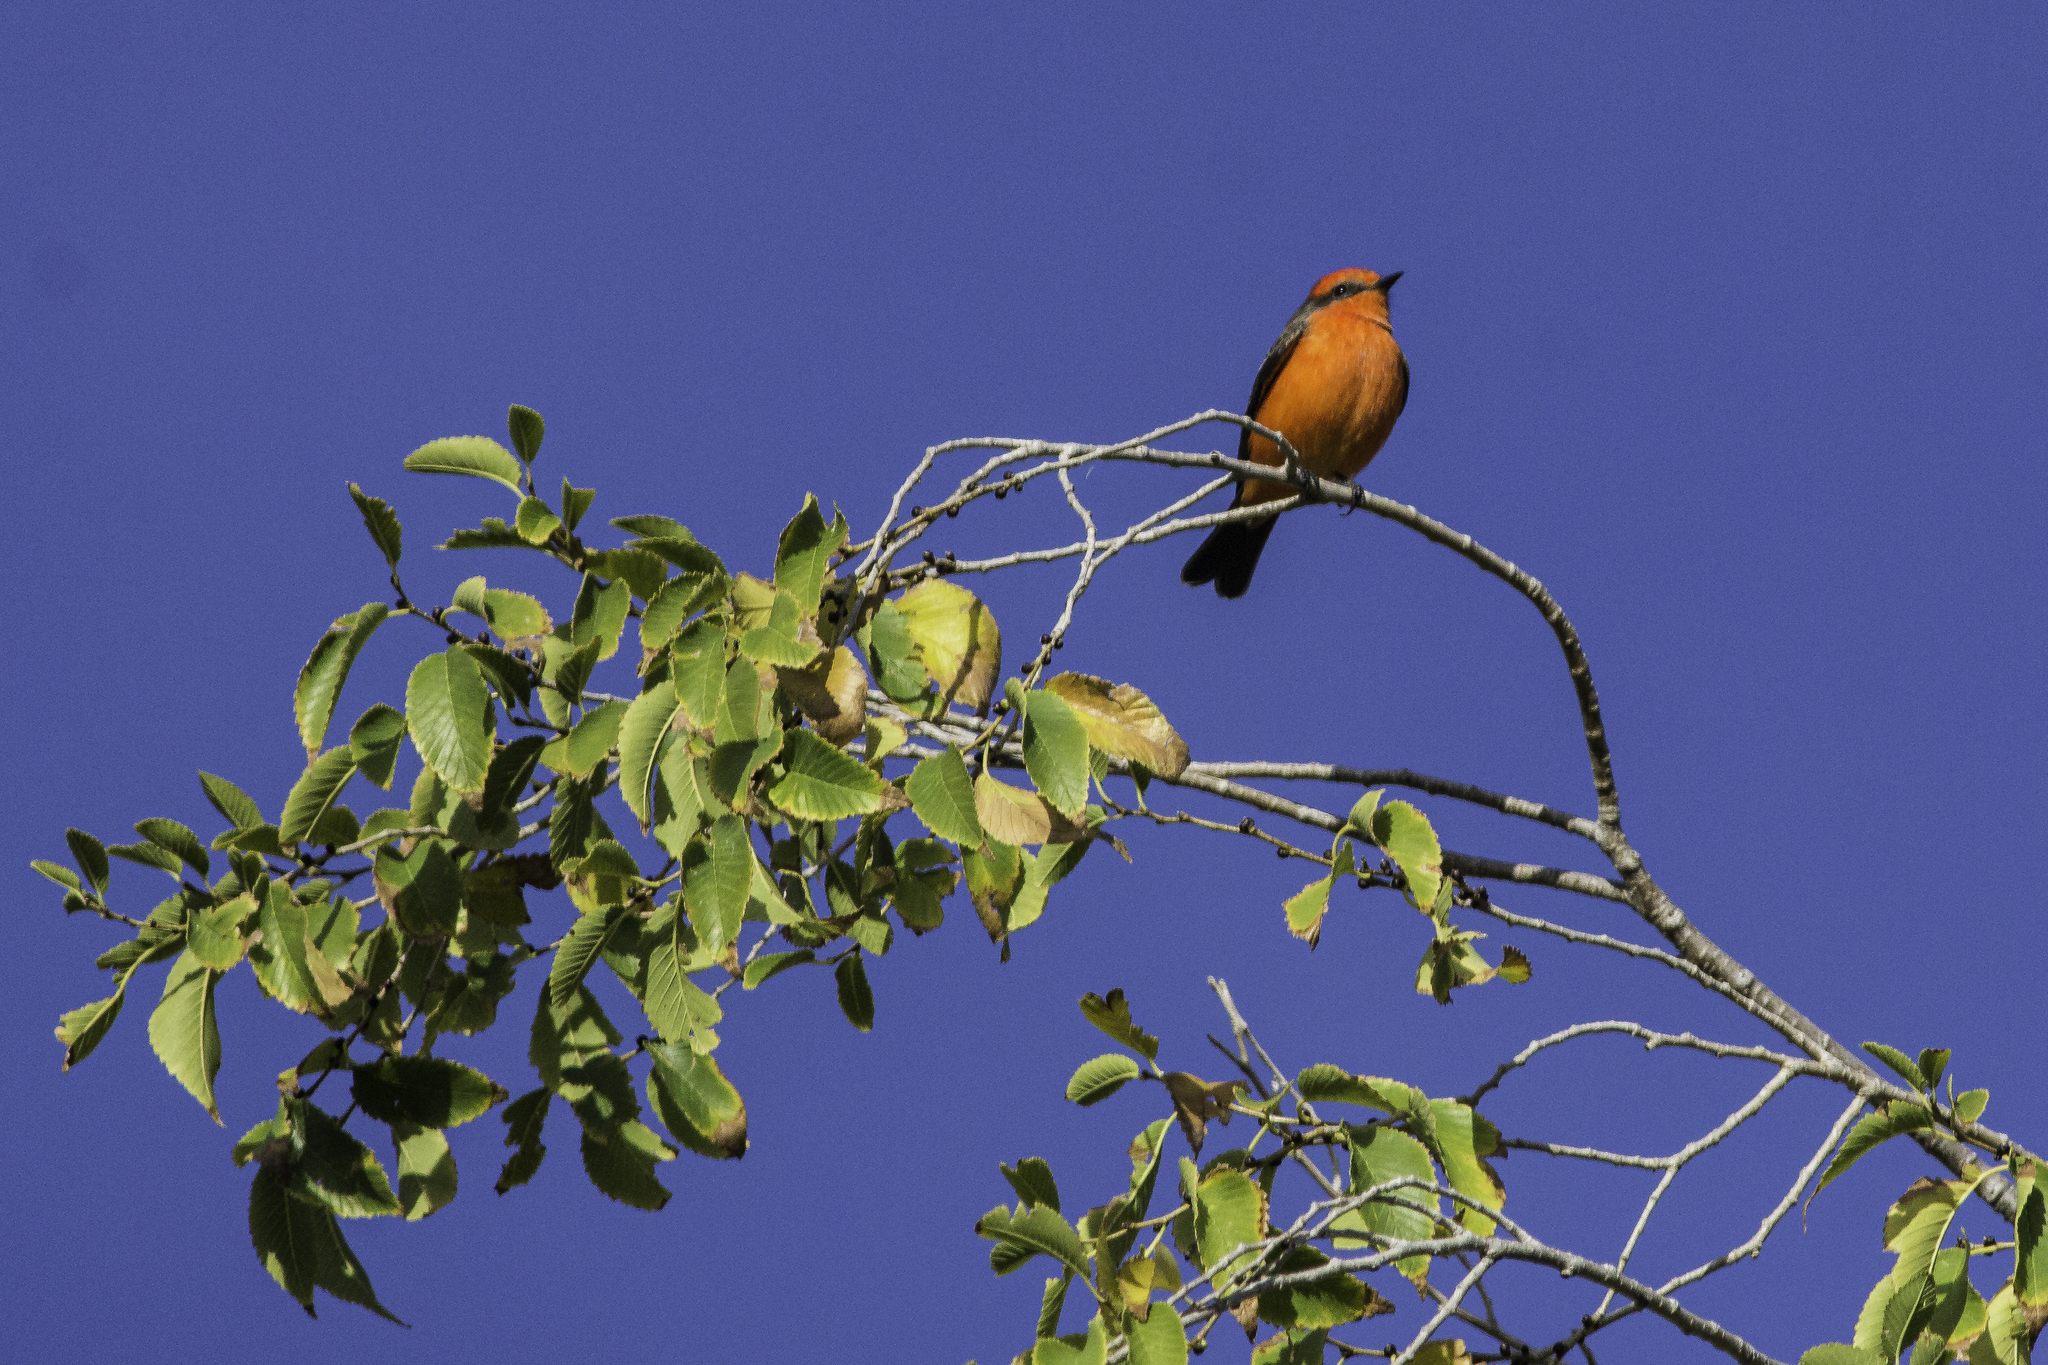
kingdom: Animalia
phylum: Chordata
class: Aves
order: Passeriformes
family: Tyrannidae
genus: Pyrocephalus
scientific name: Pyrocephalus rubinus
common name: Vermilion flycatcher
